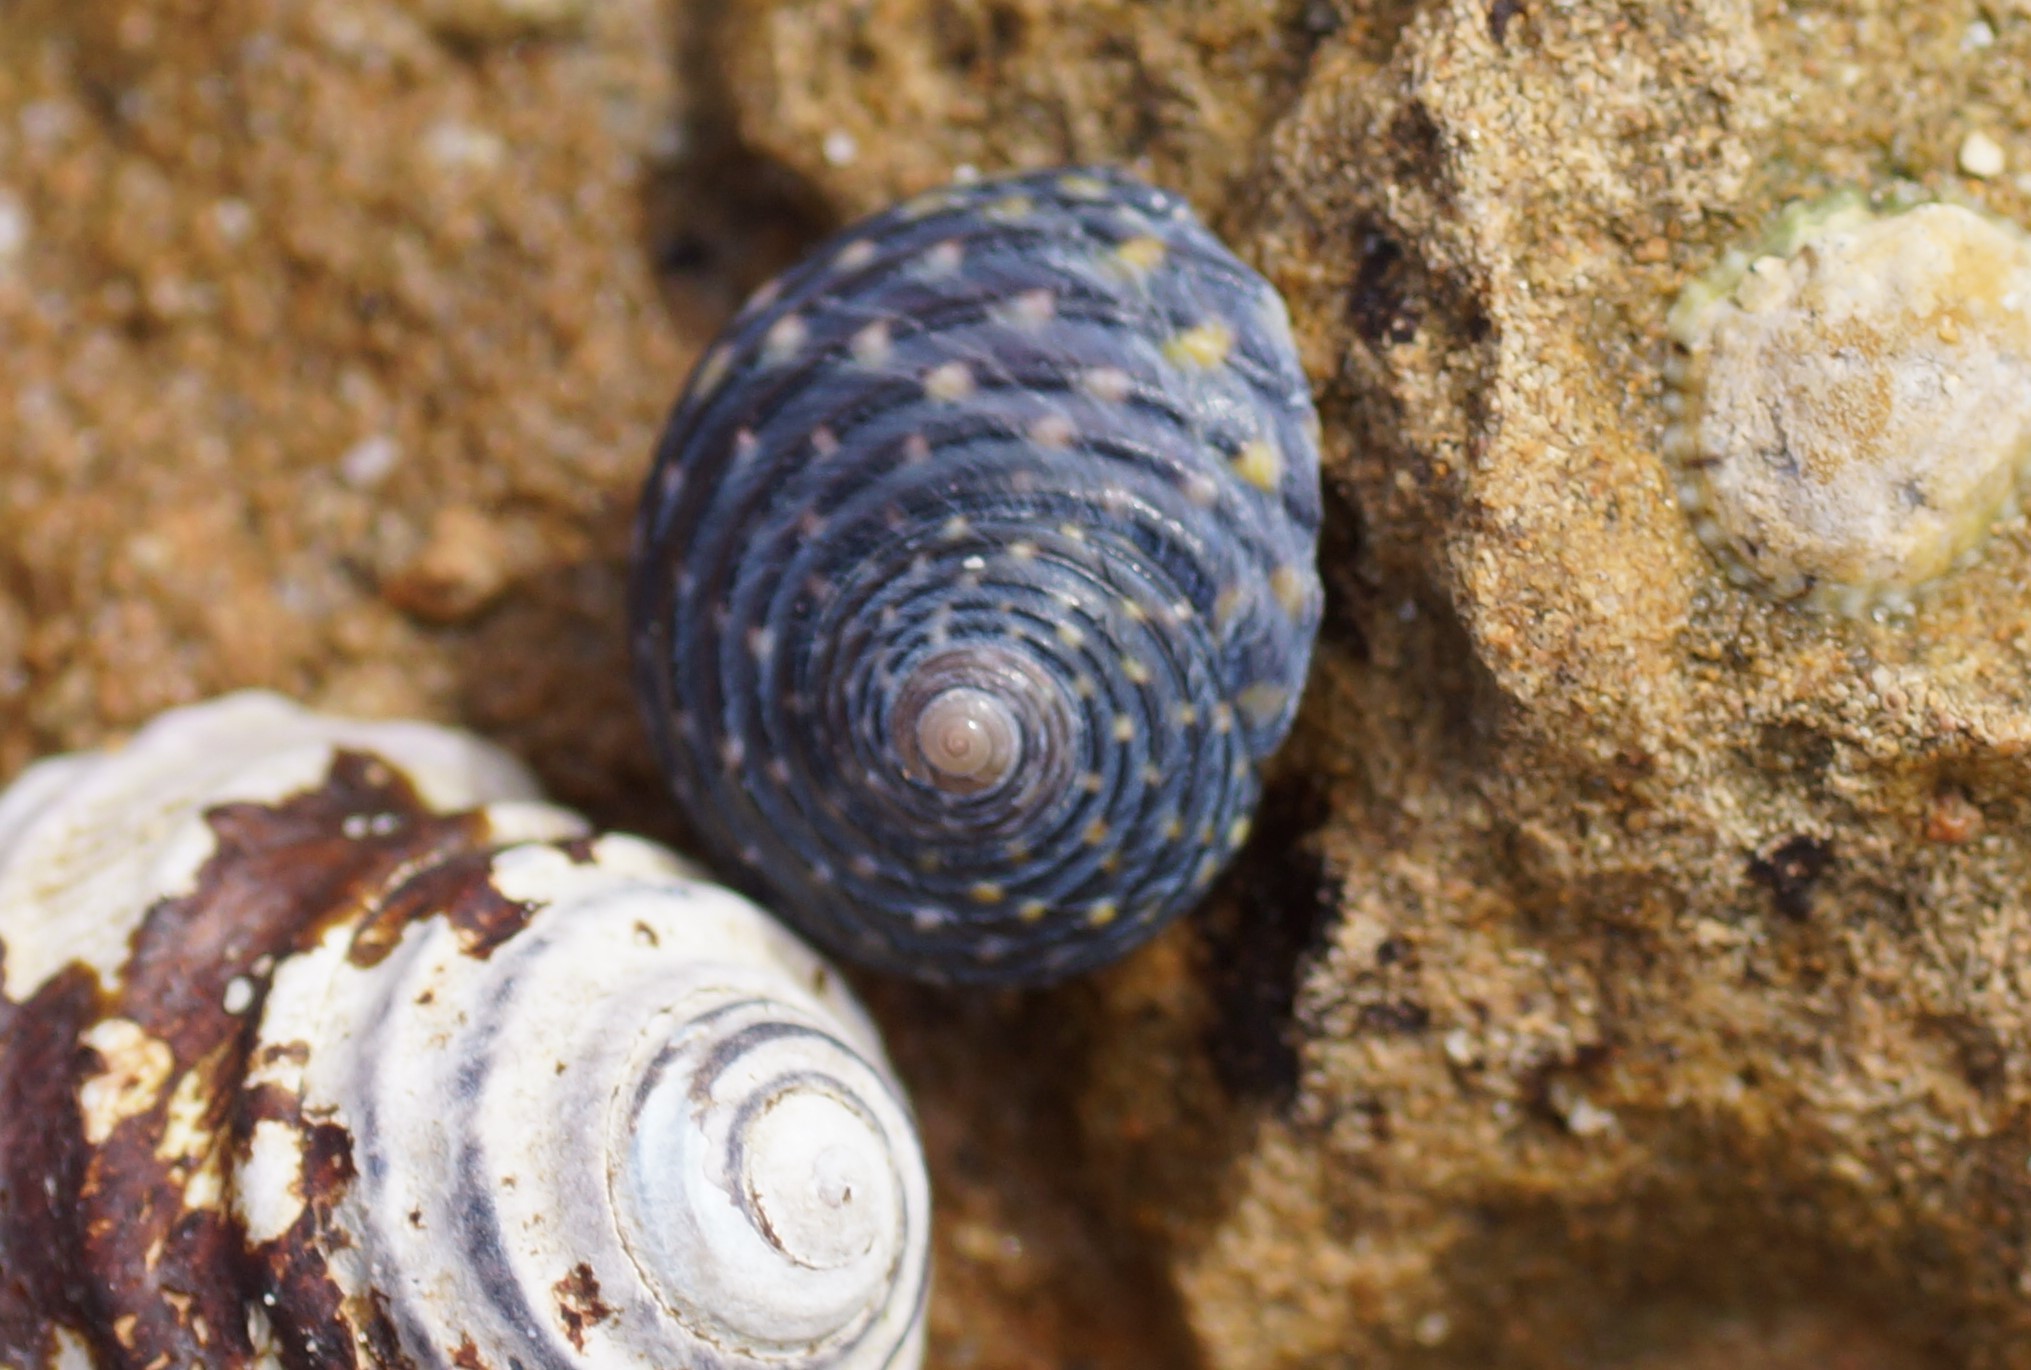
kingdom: Animalia
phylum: Mollusca
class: Gastropoda
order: Trochida
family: Trochidae
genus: Diloma
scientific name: Diloma concameratum
